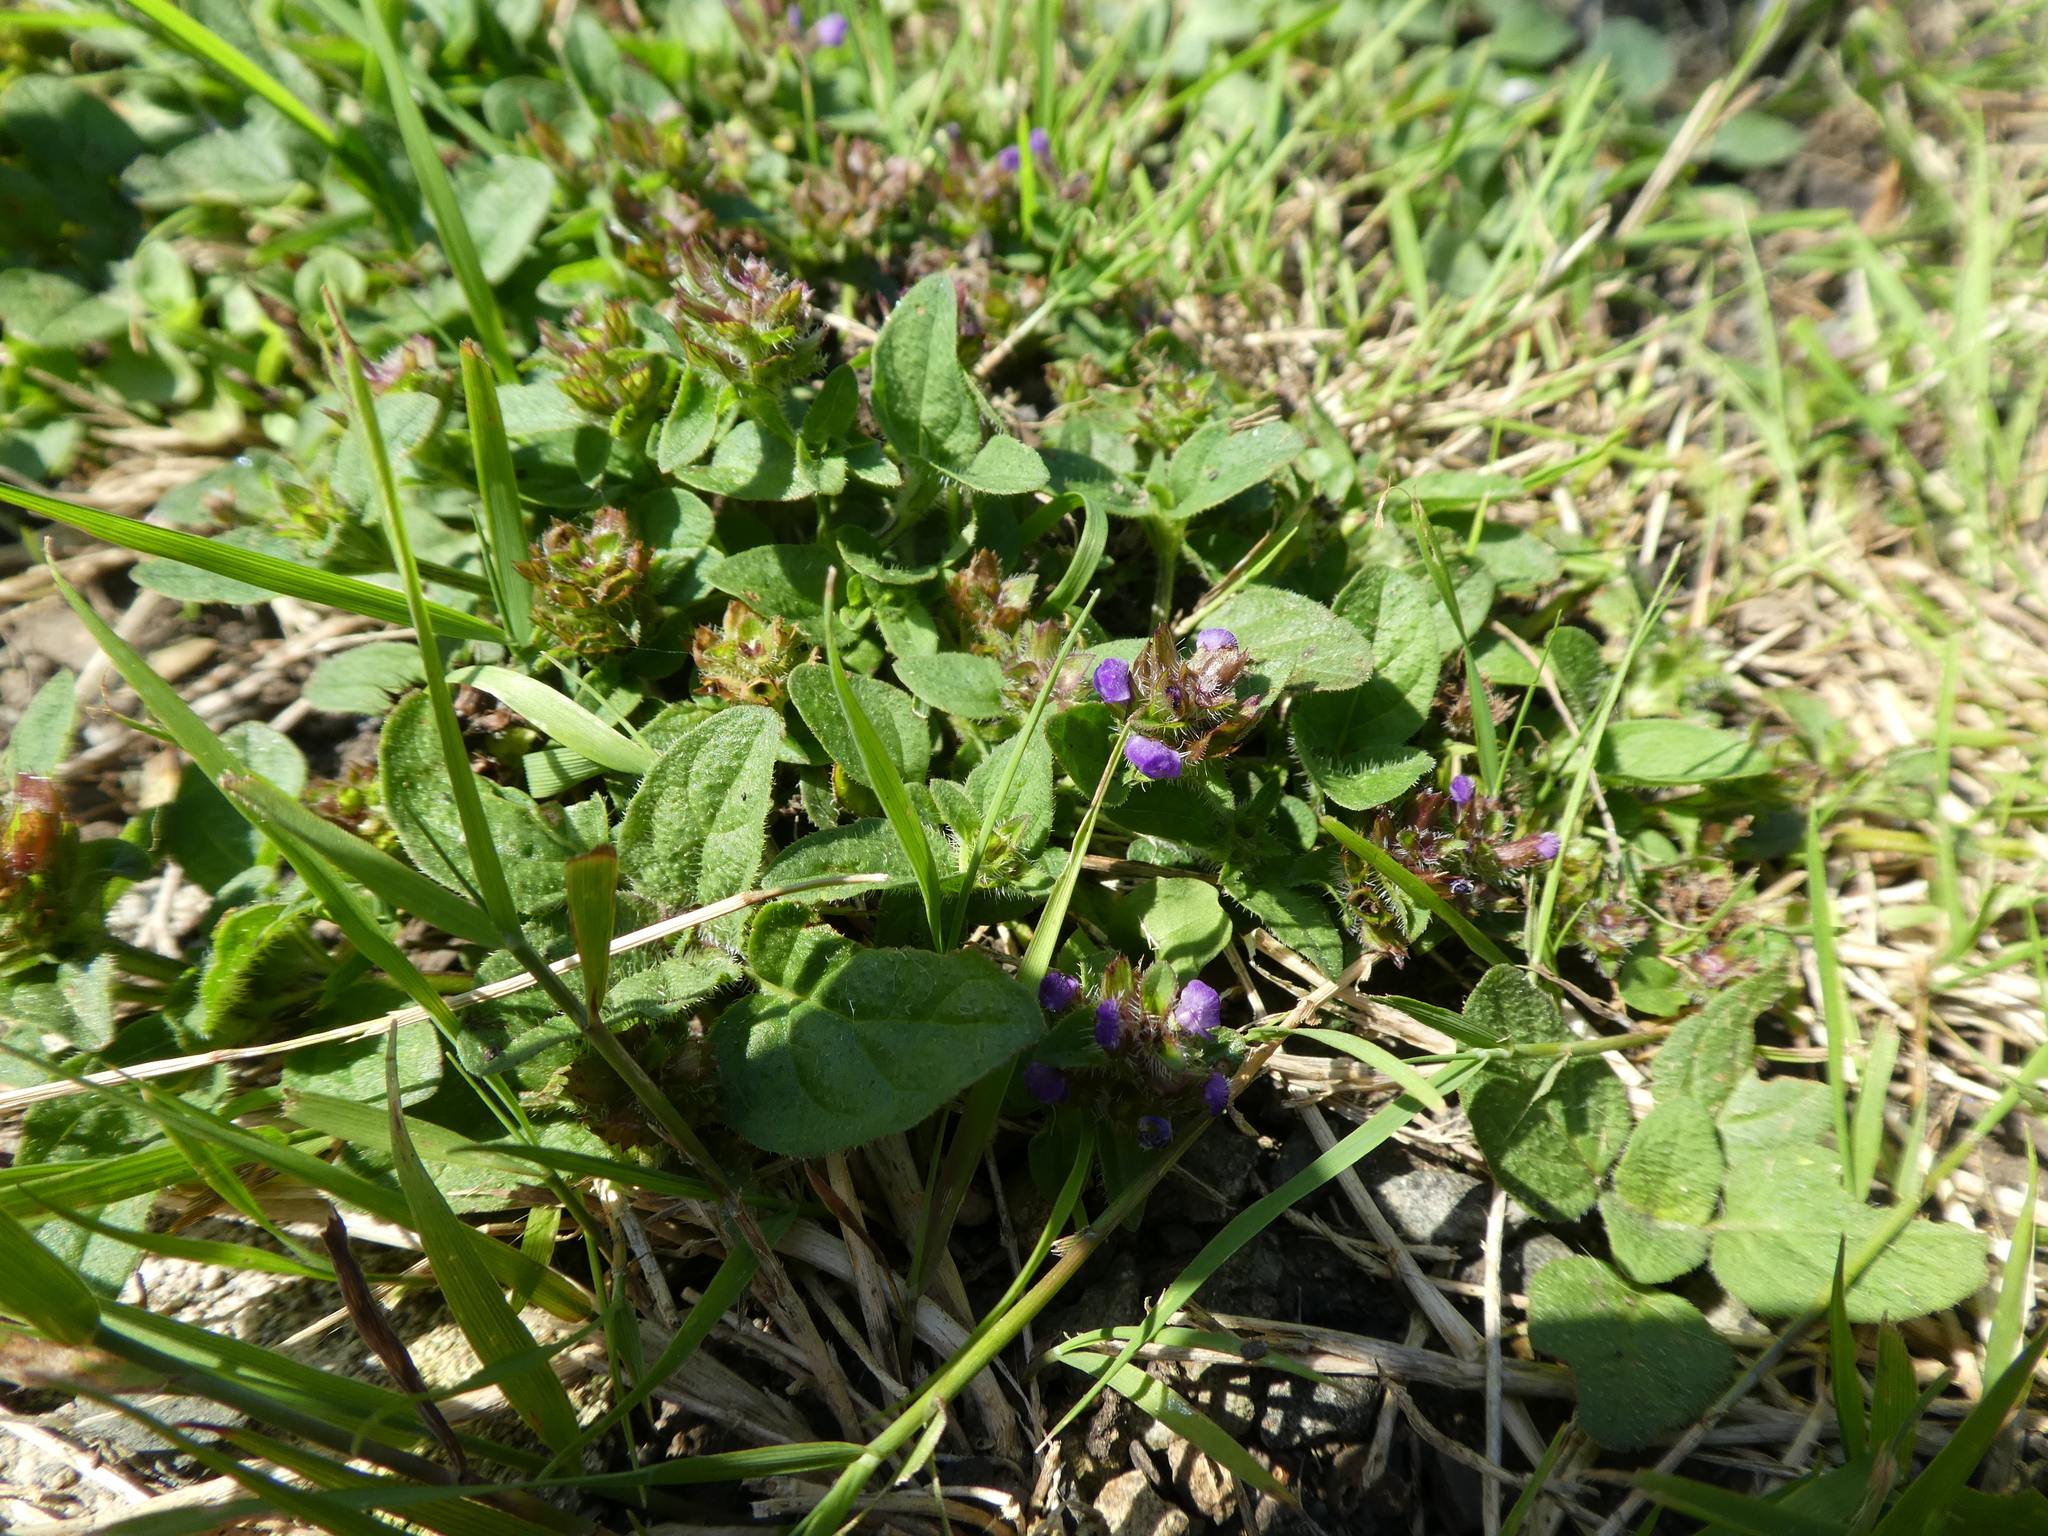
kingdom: Plantae
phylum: Tracheophyta
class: Magnoliopsida
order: Lamiales
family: Lamiaceae
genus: Prunella
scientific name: Prunella vulgaris
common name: Heal-all
